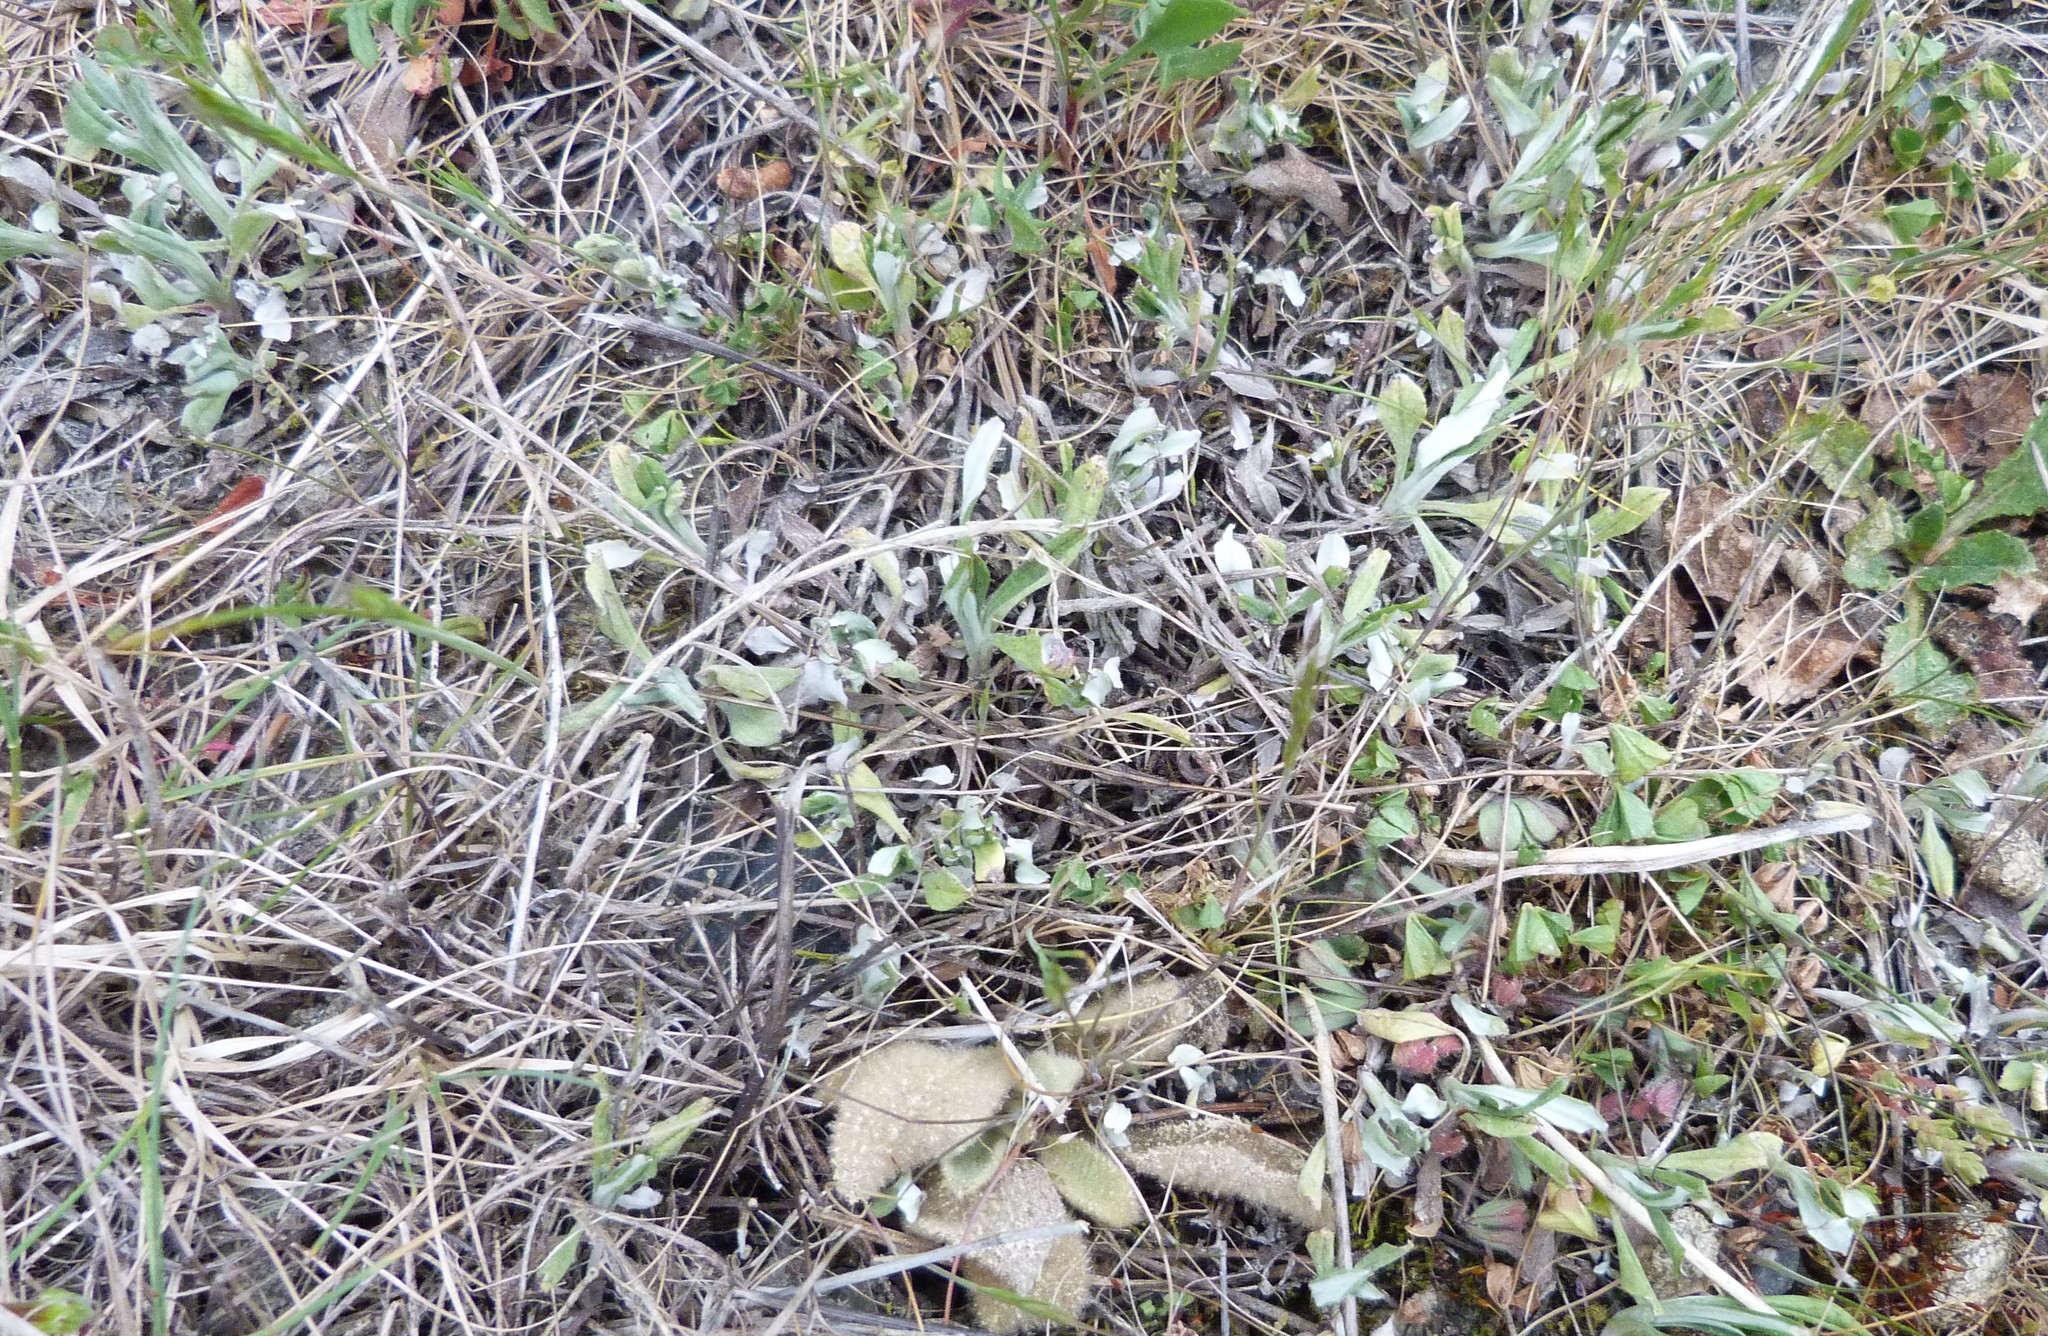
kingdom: Plantae
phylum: Tracheophyta
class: Magnoliopsida
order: Asterales
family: Asteraceae
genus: Helichrysum
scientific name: Helichrysum luteoalbum
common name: Daisy
